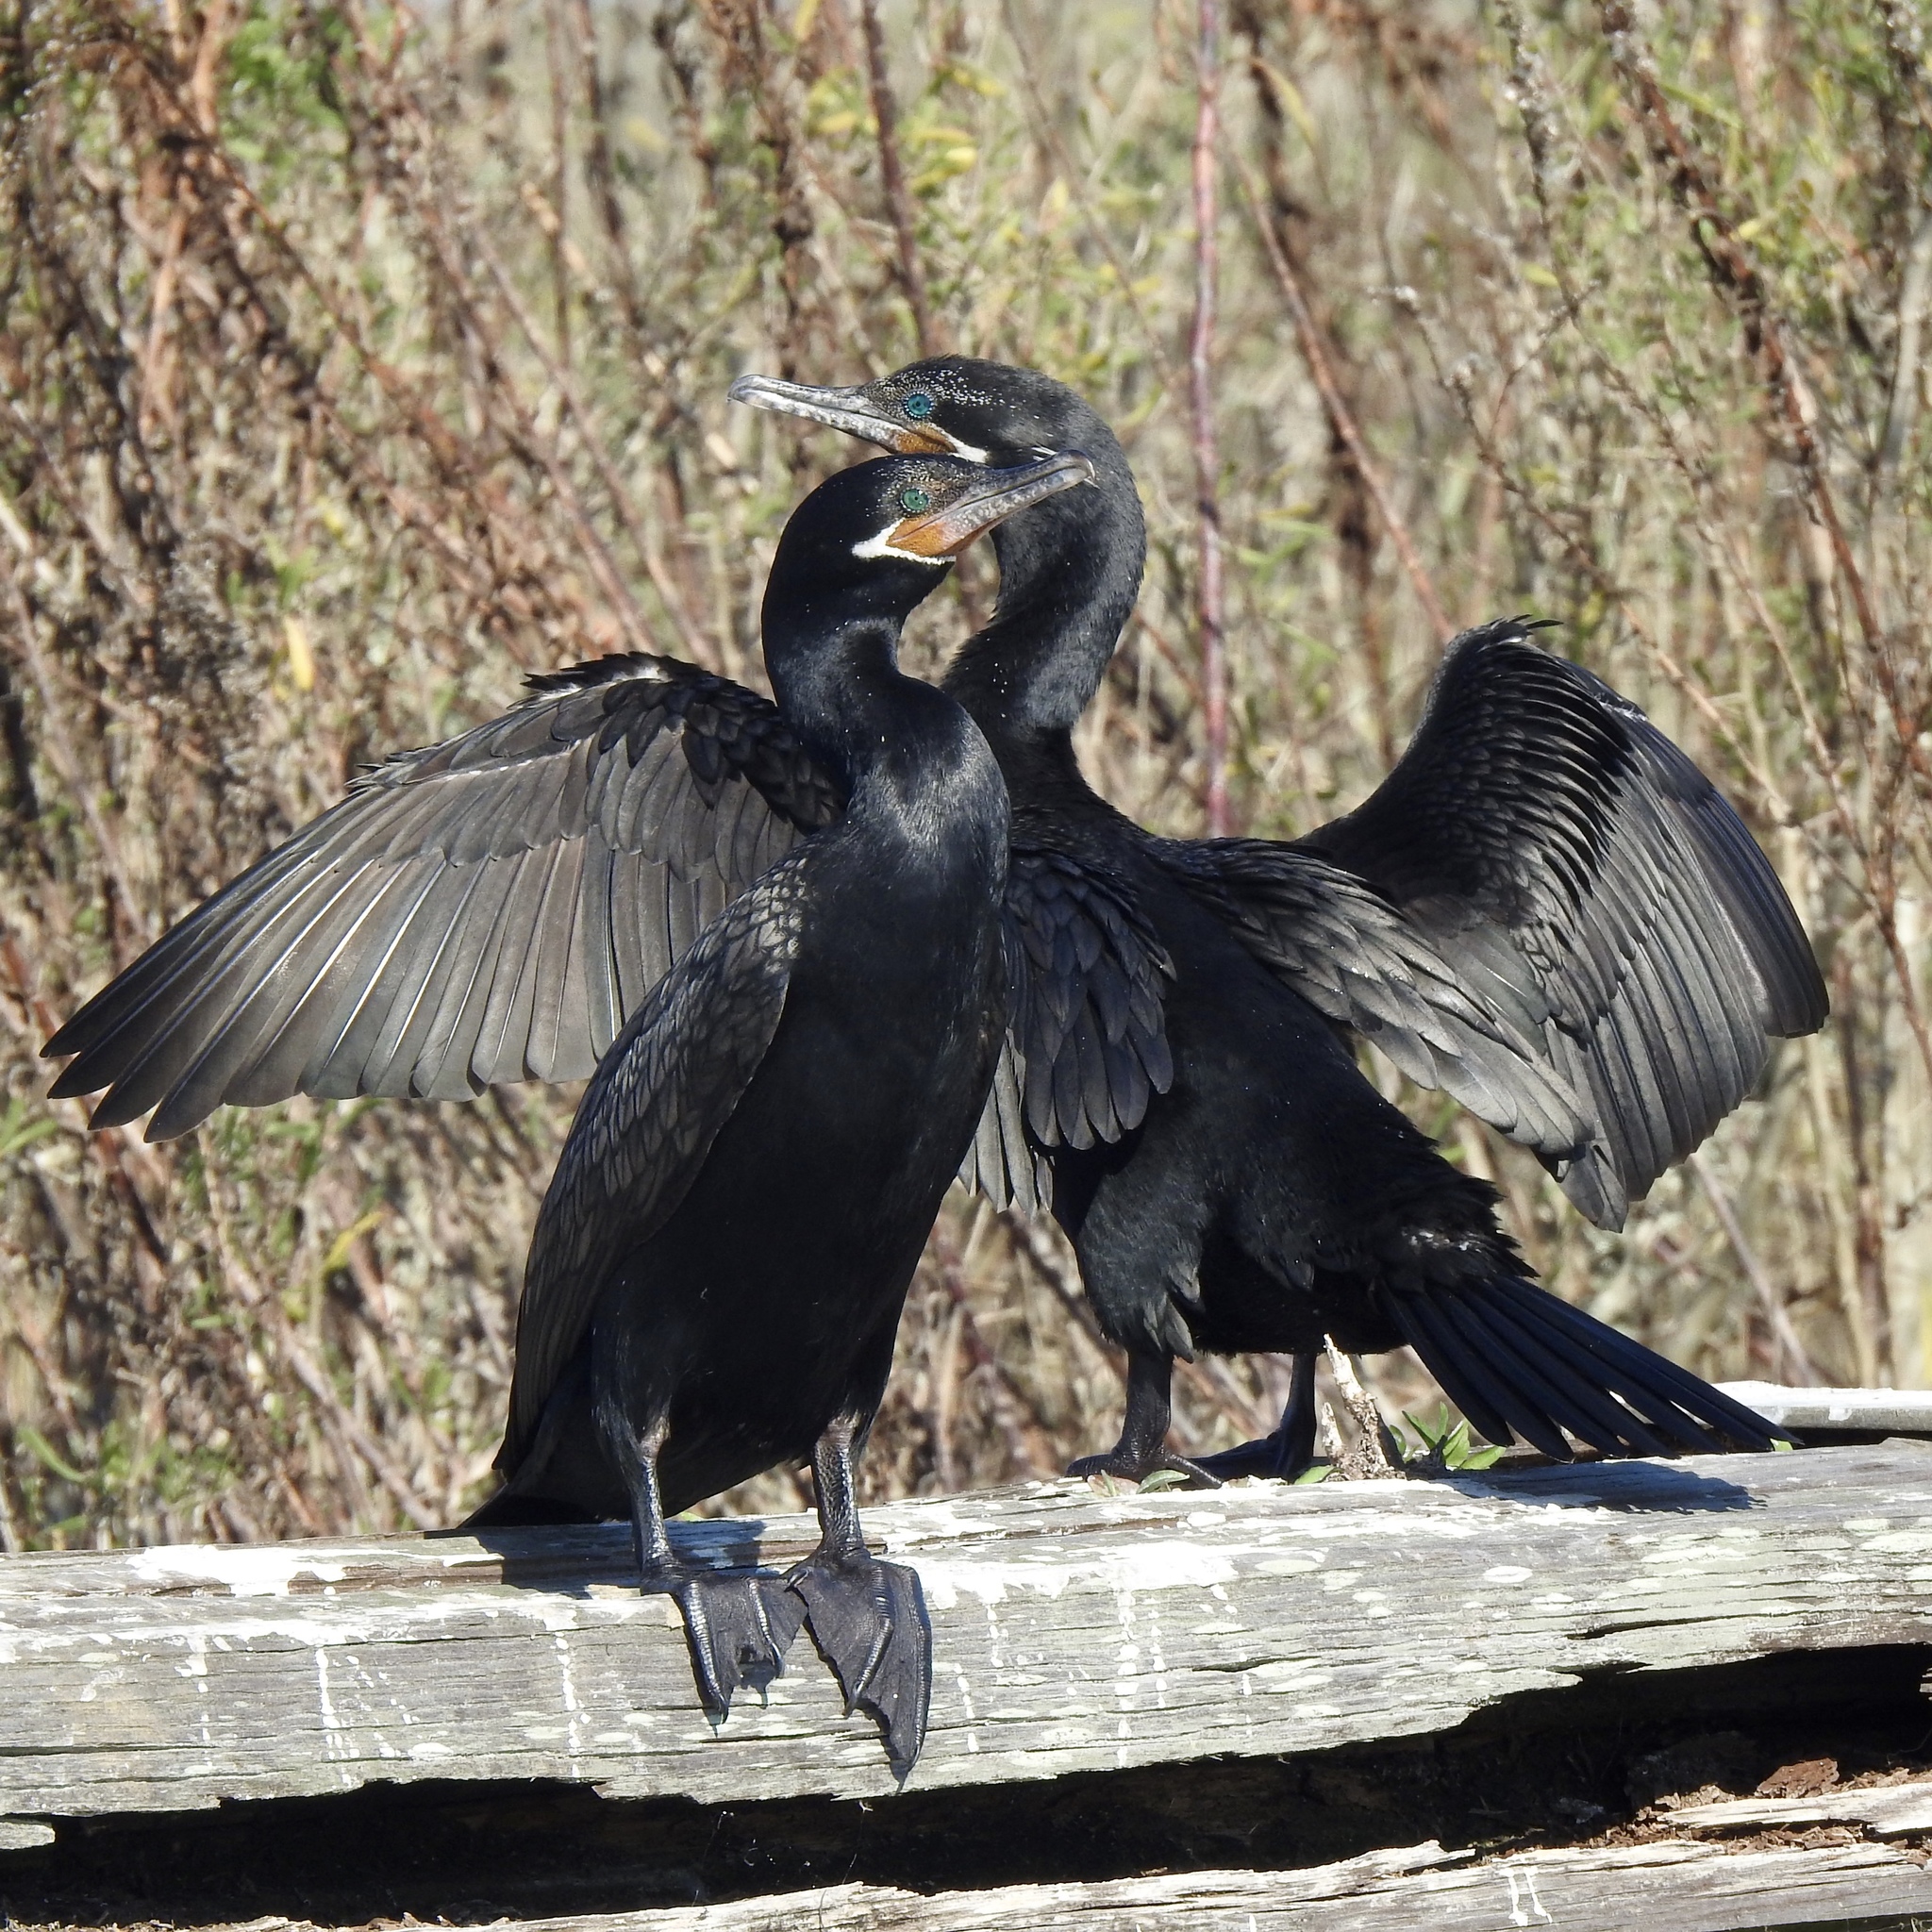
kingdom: Animalia
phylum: Chordata
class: Aves
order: Suliformes
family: Phalacrocoracidae
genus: Phalacrocorax
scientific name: Phalacrocorax brasilianus
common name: Neotropic cormorant
